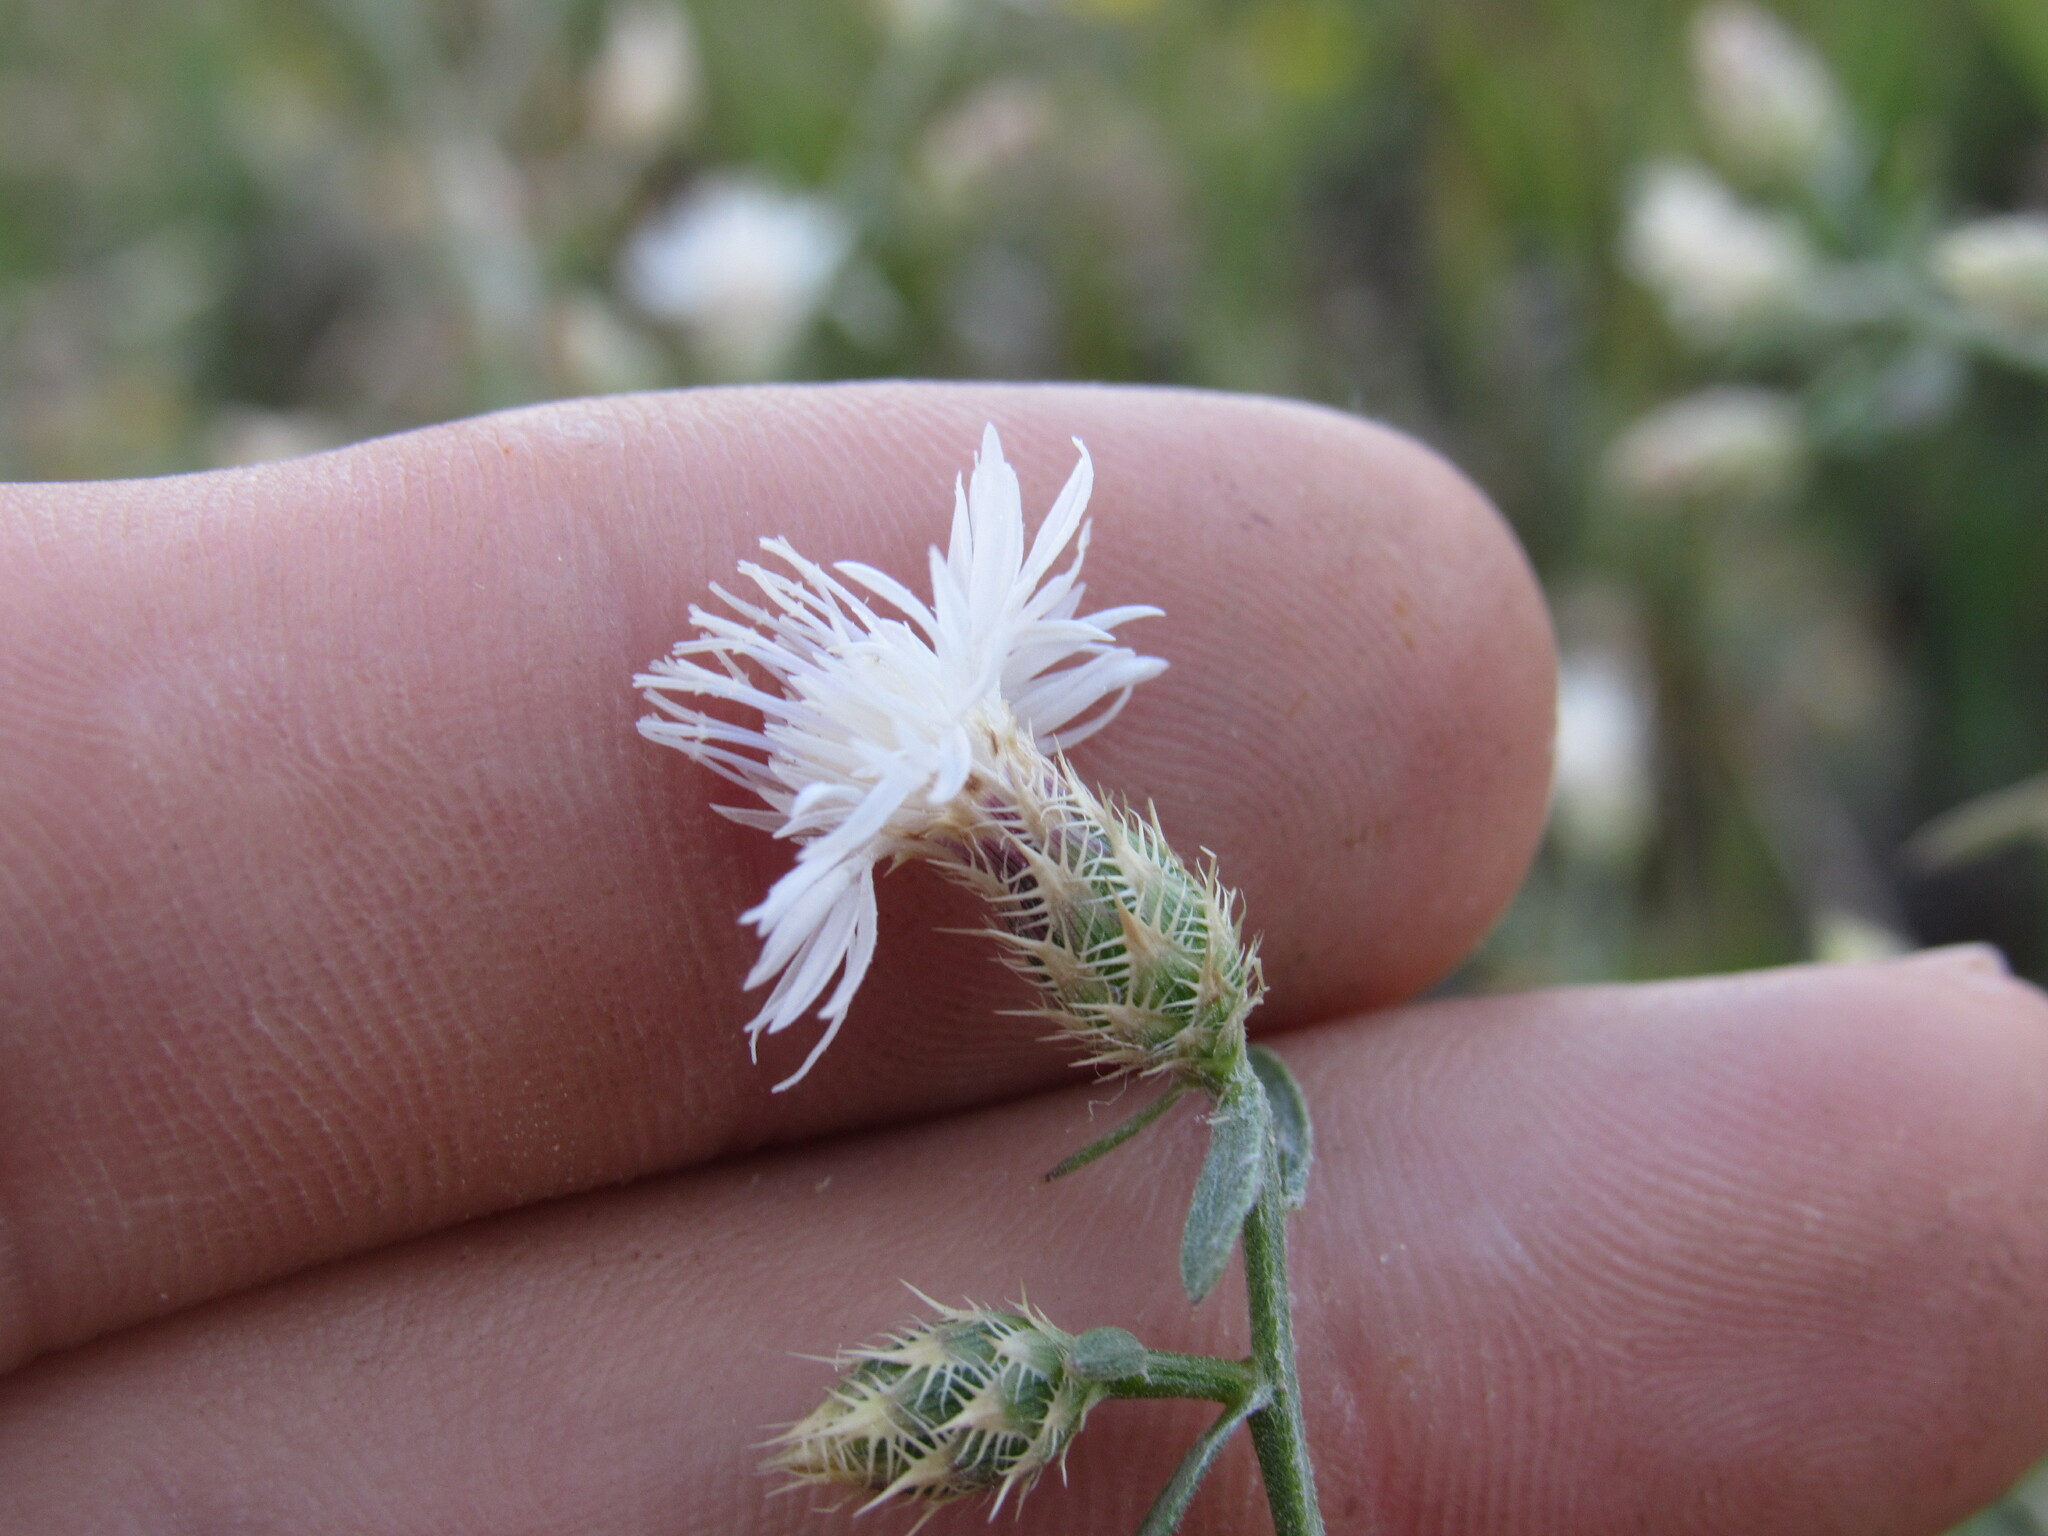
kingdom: Plantae
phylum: Tracheophyta
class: Magnoliopsida
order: Asterales
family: Asteraceae
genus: Centaurea
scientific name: Centaurea diffusa
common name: Diffuse knapweed
